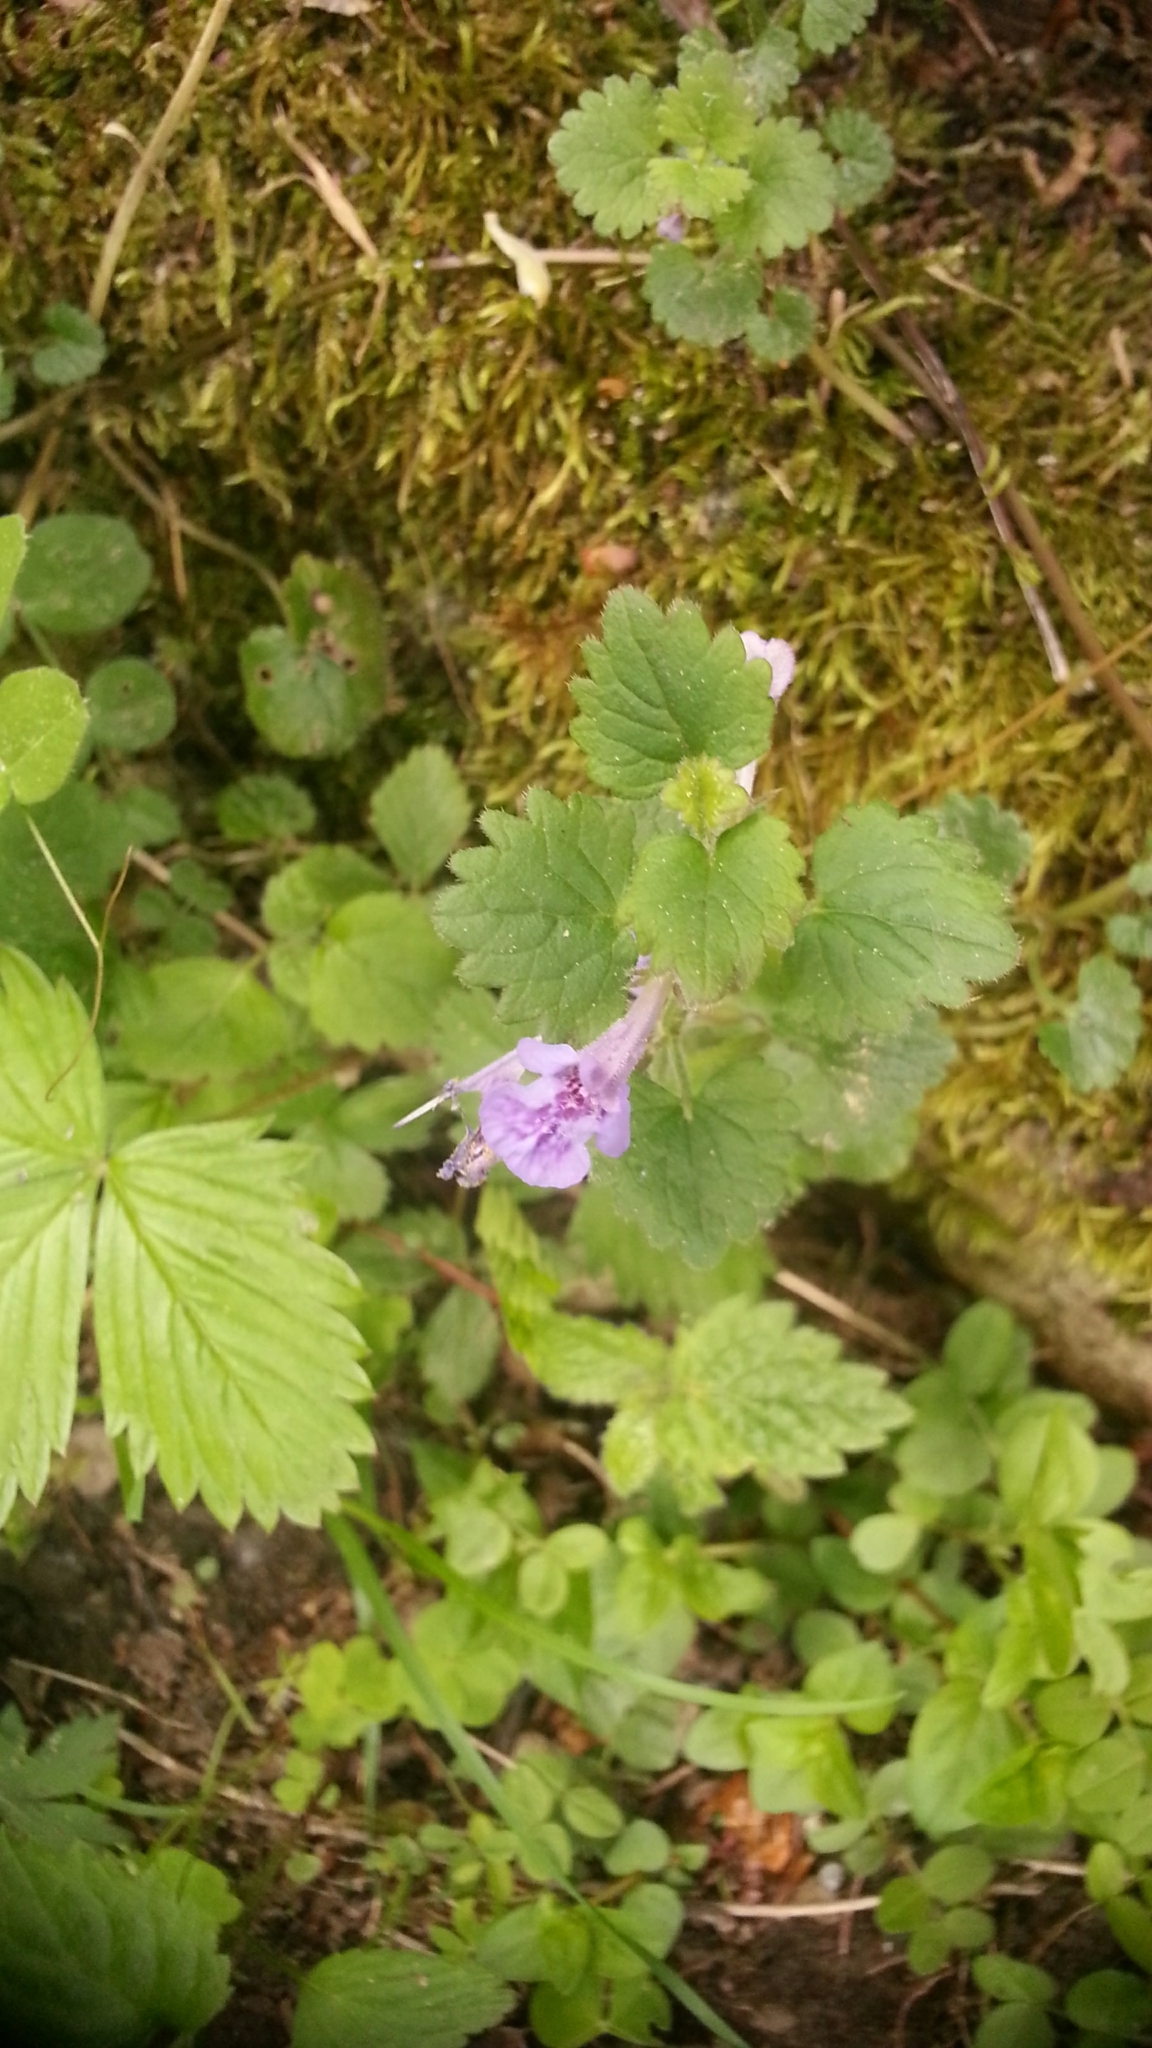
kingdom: Plantae
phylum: Tracheophyta
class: Magnoliopsida
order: Lamiales
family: Lamiaceae
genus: Glechoma
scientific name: Glechoma hederacea
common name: Ground ivy
